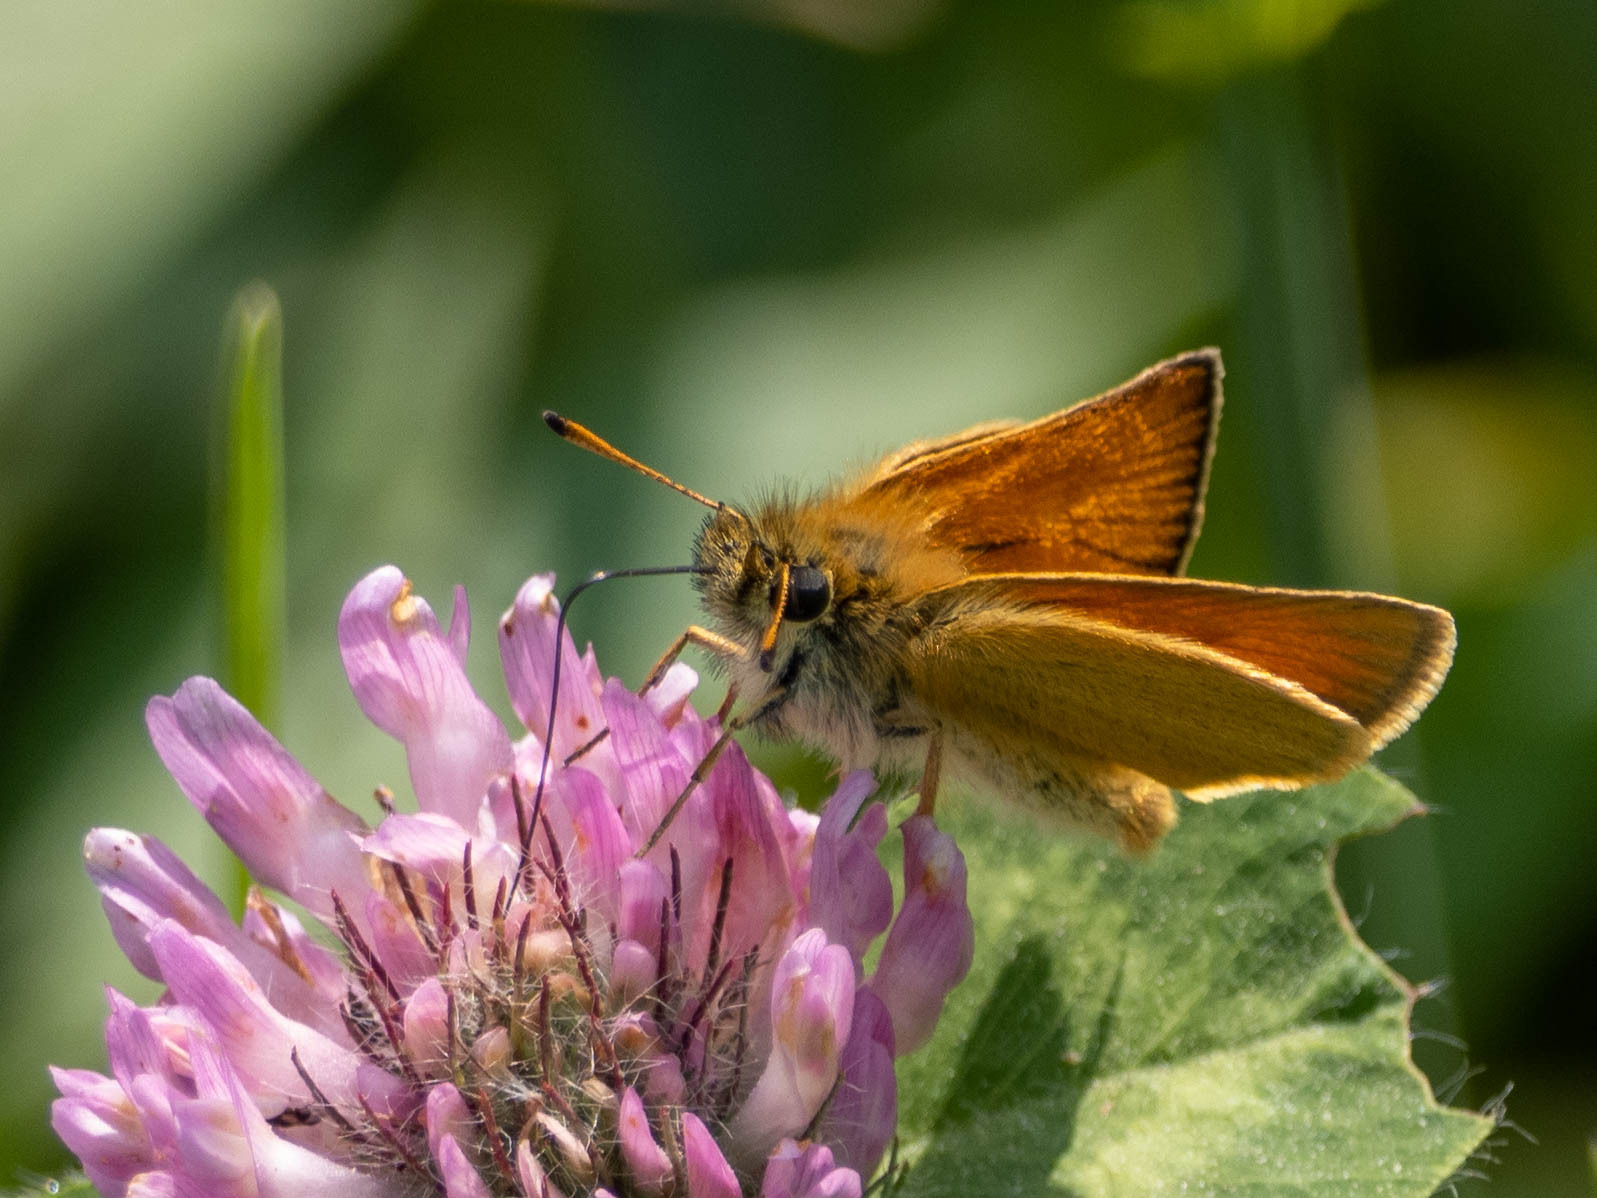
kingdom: Animalia
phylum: Arthropoda
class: Insecta
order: Lepidoptera
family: Hesperiidae
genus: Thymelicus
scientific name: Thymelicus lineola
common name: Essex skipper
